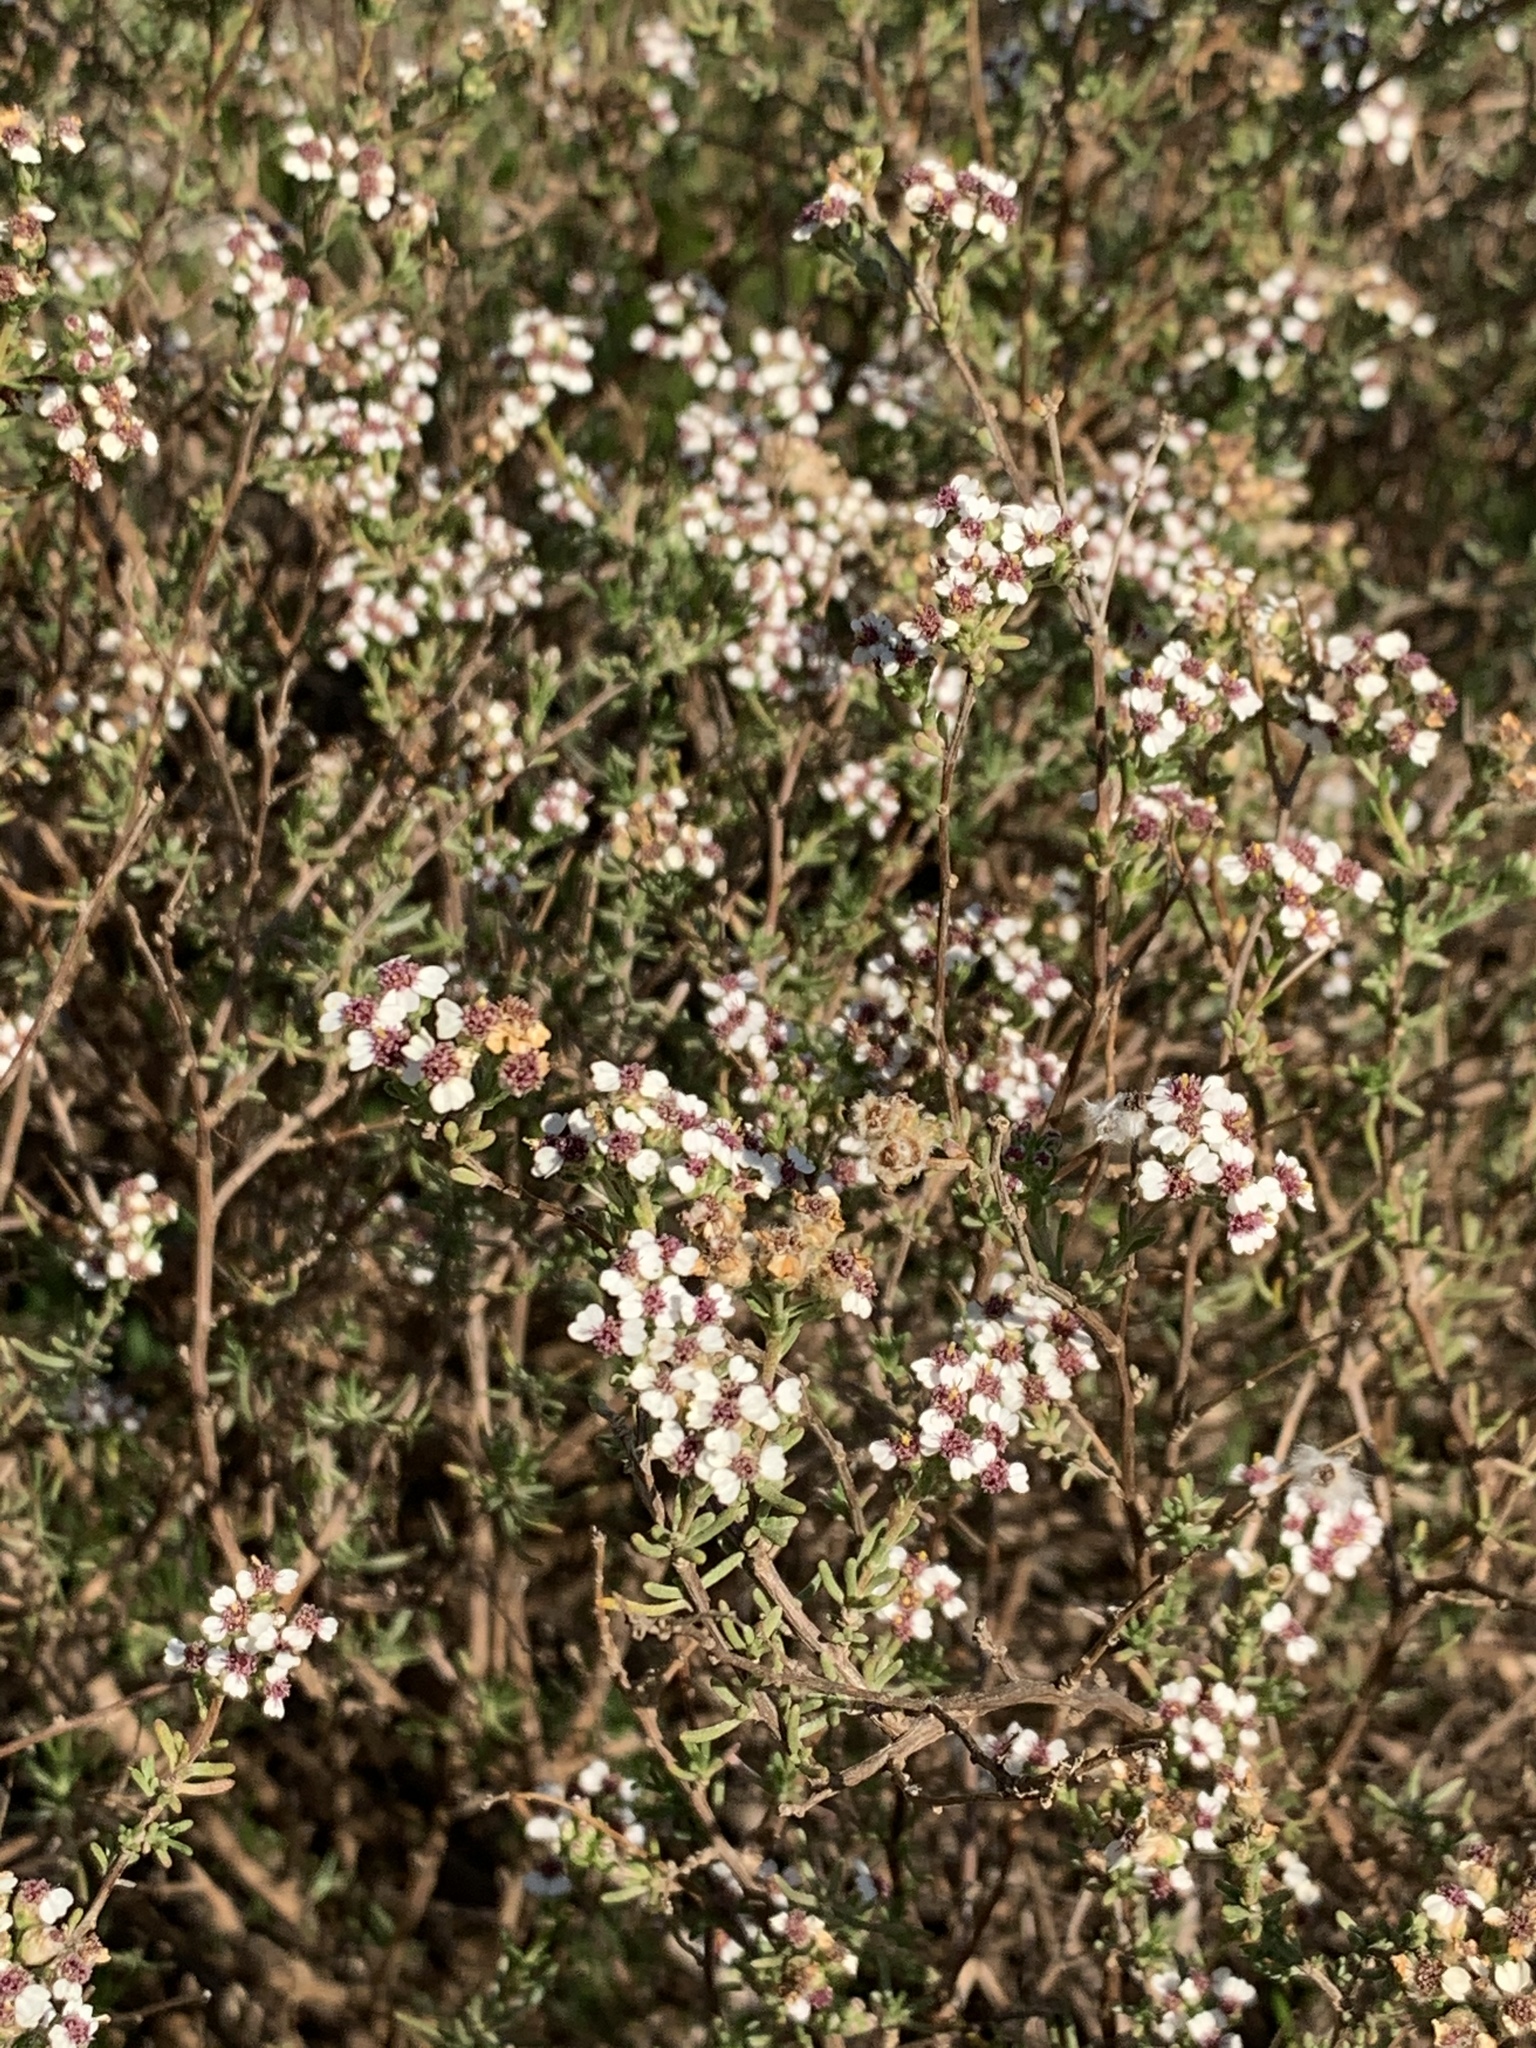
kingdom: Plantae
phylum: Tracheophyta
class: Magnoliopsida
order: Asterales
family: Asteraceae
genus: Eriocephalus
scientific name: Eriocephalus africanus
